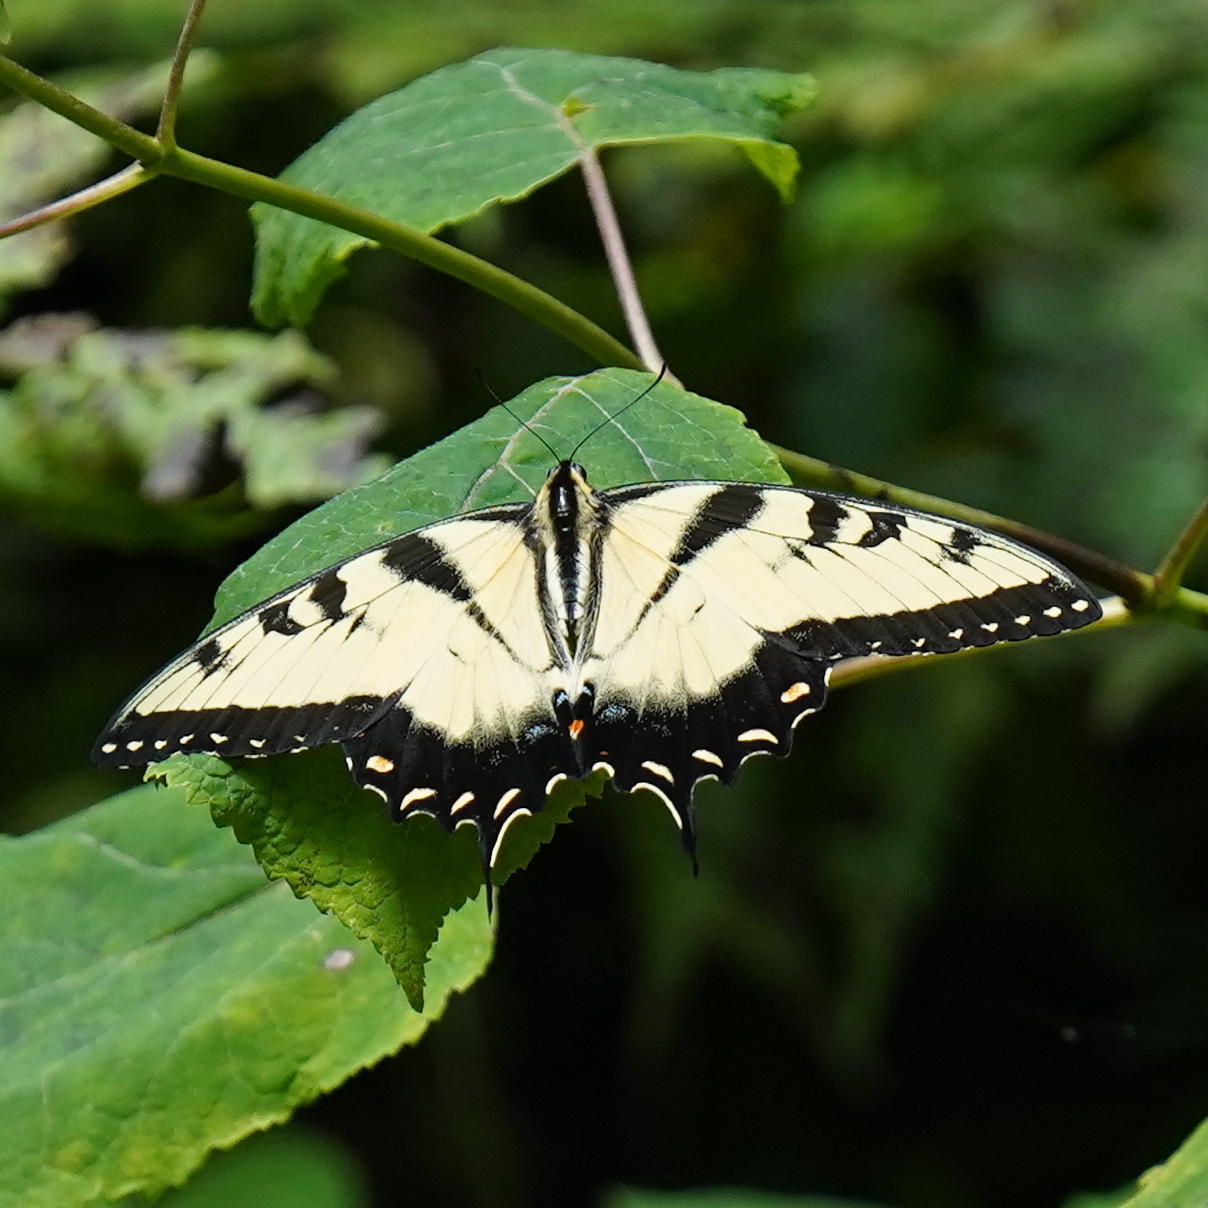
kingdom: Animalia
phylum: Arthropoda
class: Insecta
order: Lepidoptera
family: Papilionidae
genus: Papilio
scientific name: Papilio glaucus
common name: Tiger swallowtail
